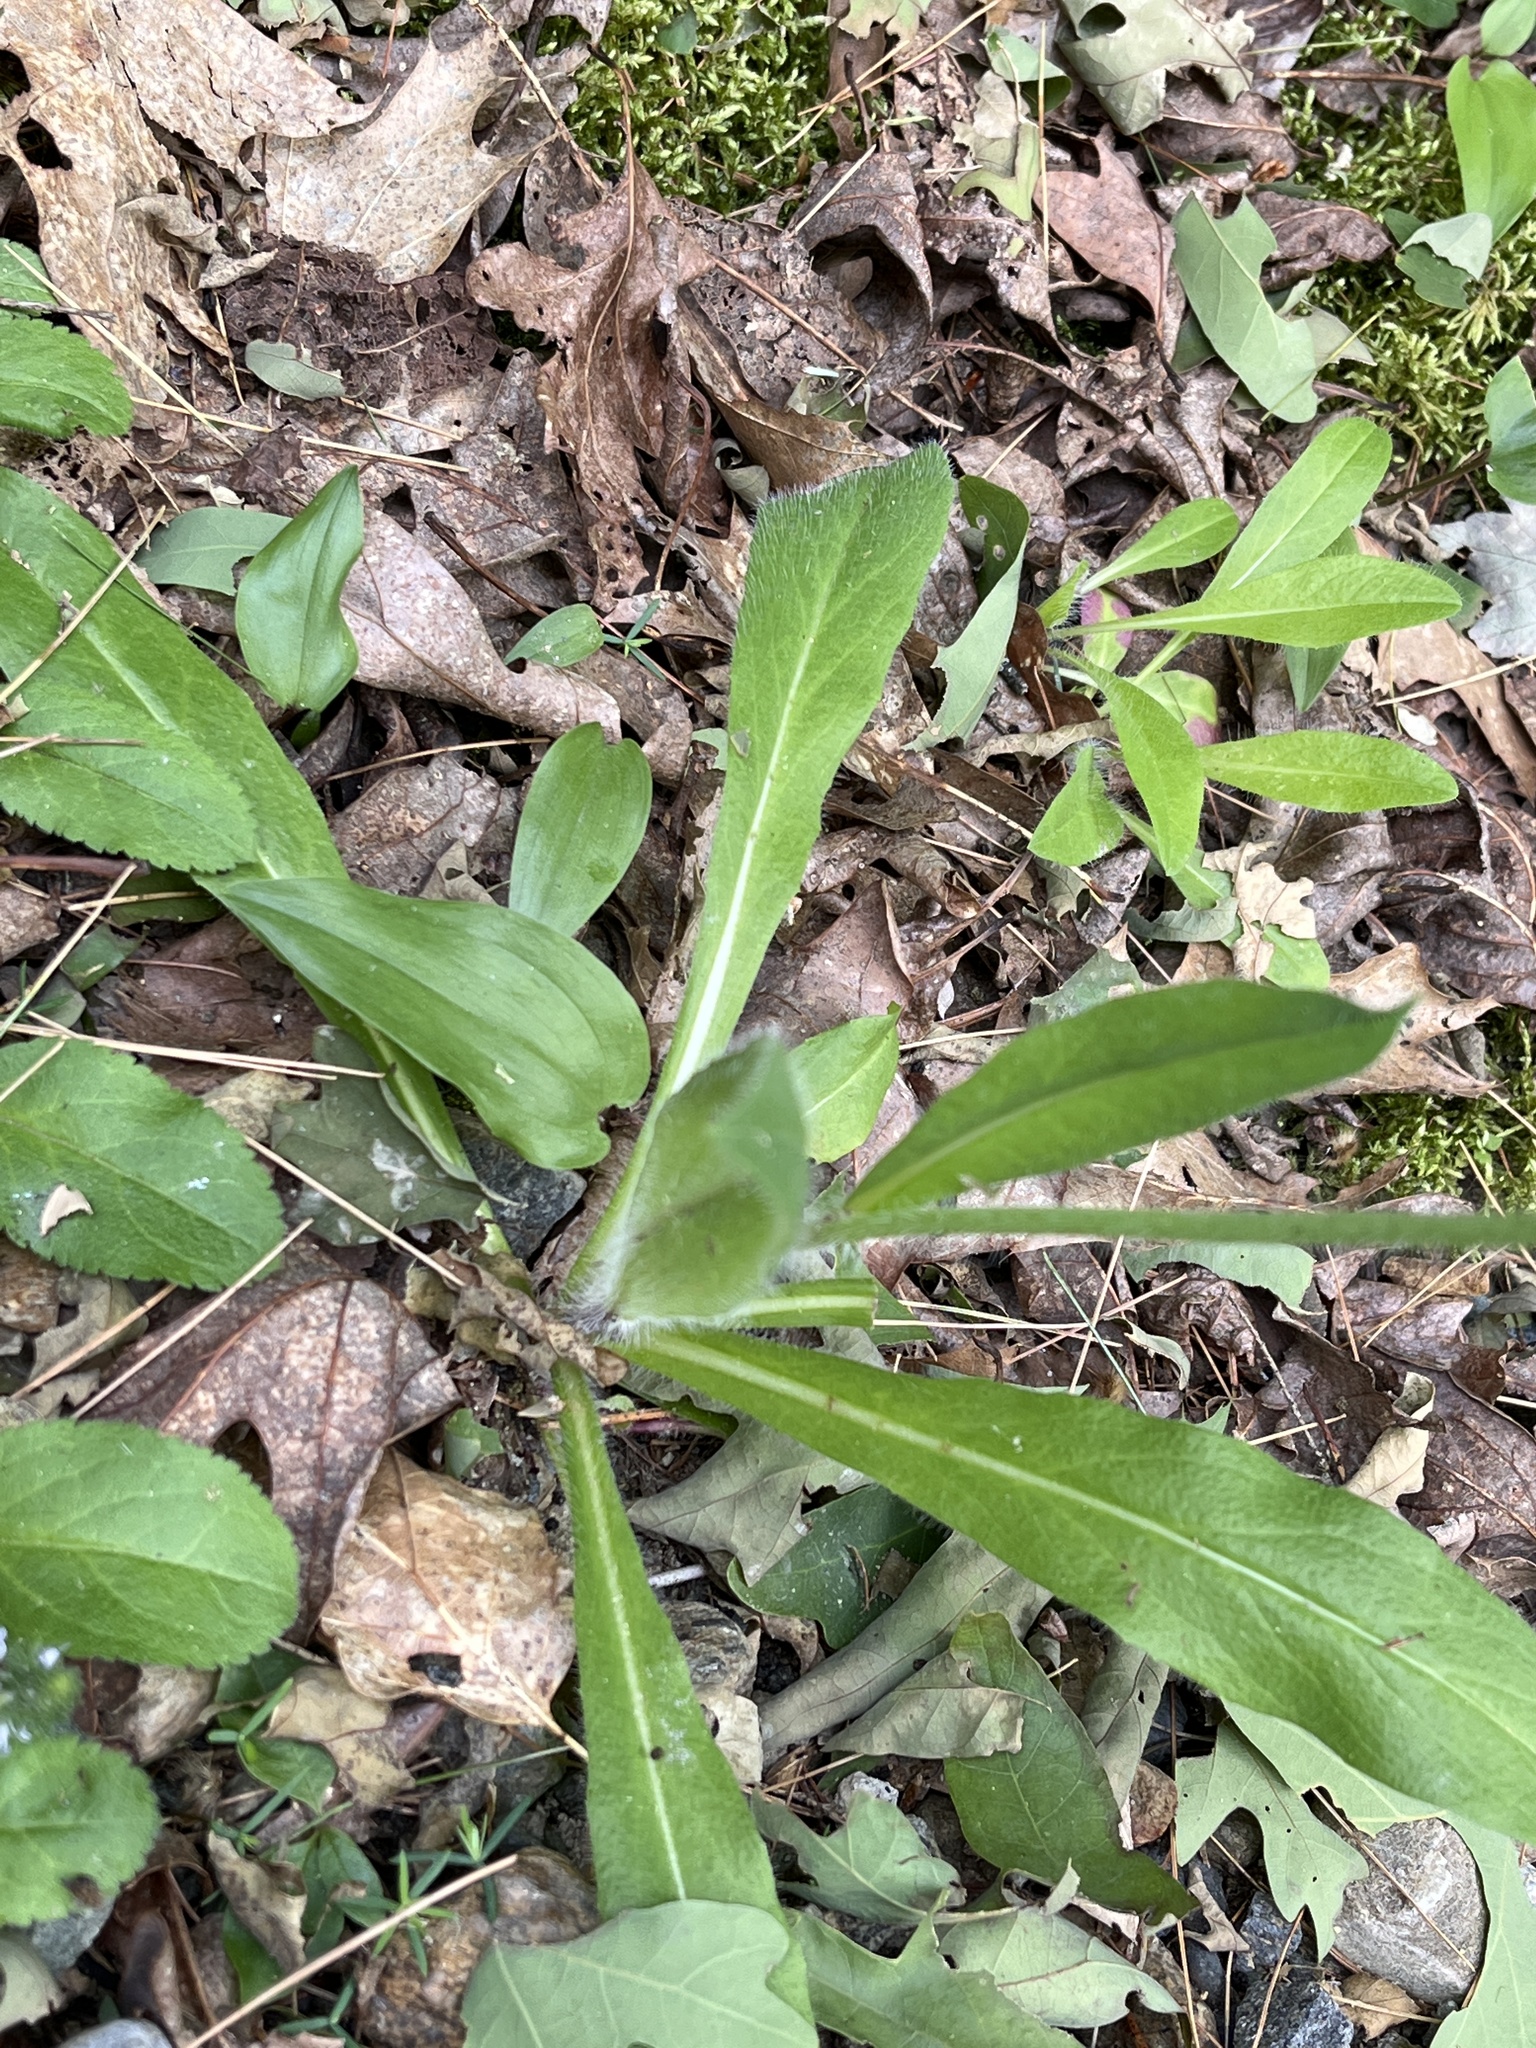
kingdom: Plantae
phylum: Tracheophyta
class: Magnoliopsida
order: Asterales
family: Asteraceae
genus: Pilosella
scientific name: Pilosella aurantiaca
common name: Fox-and-cubs
